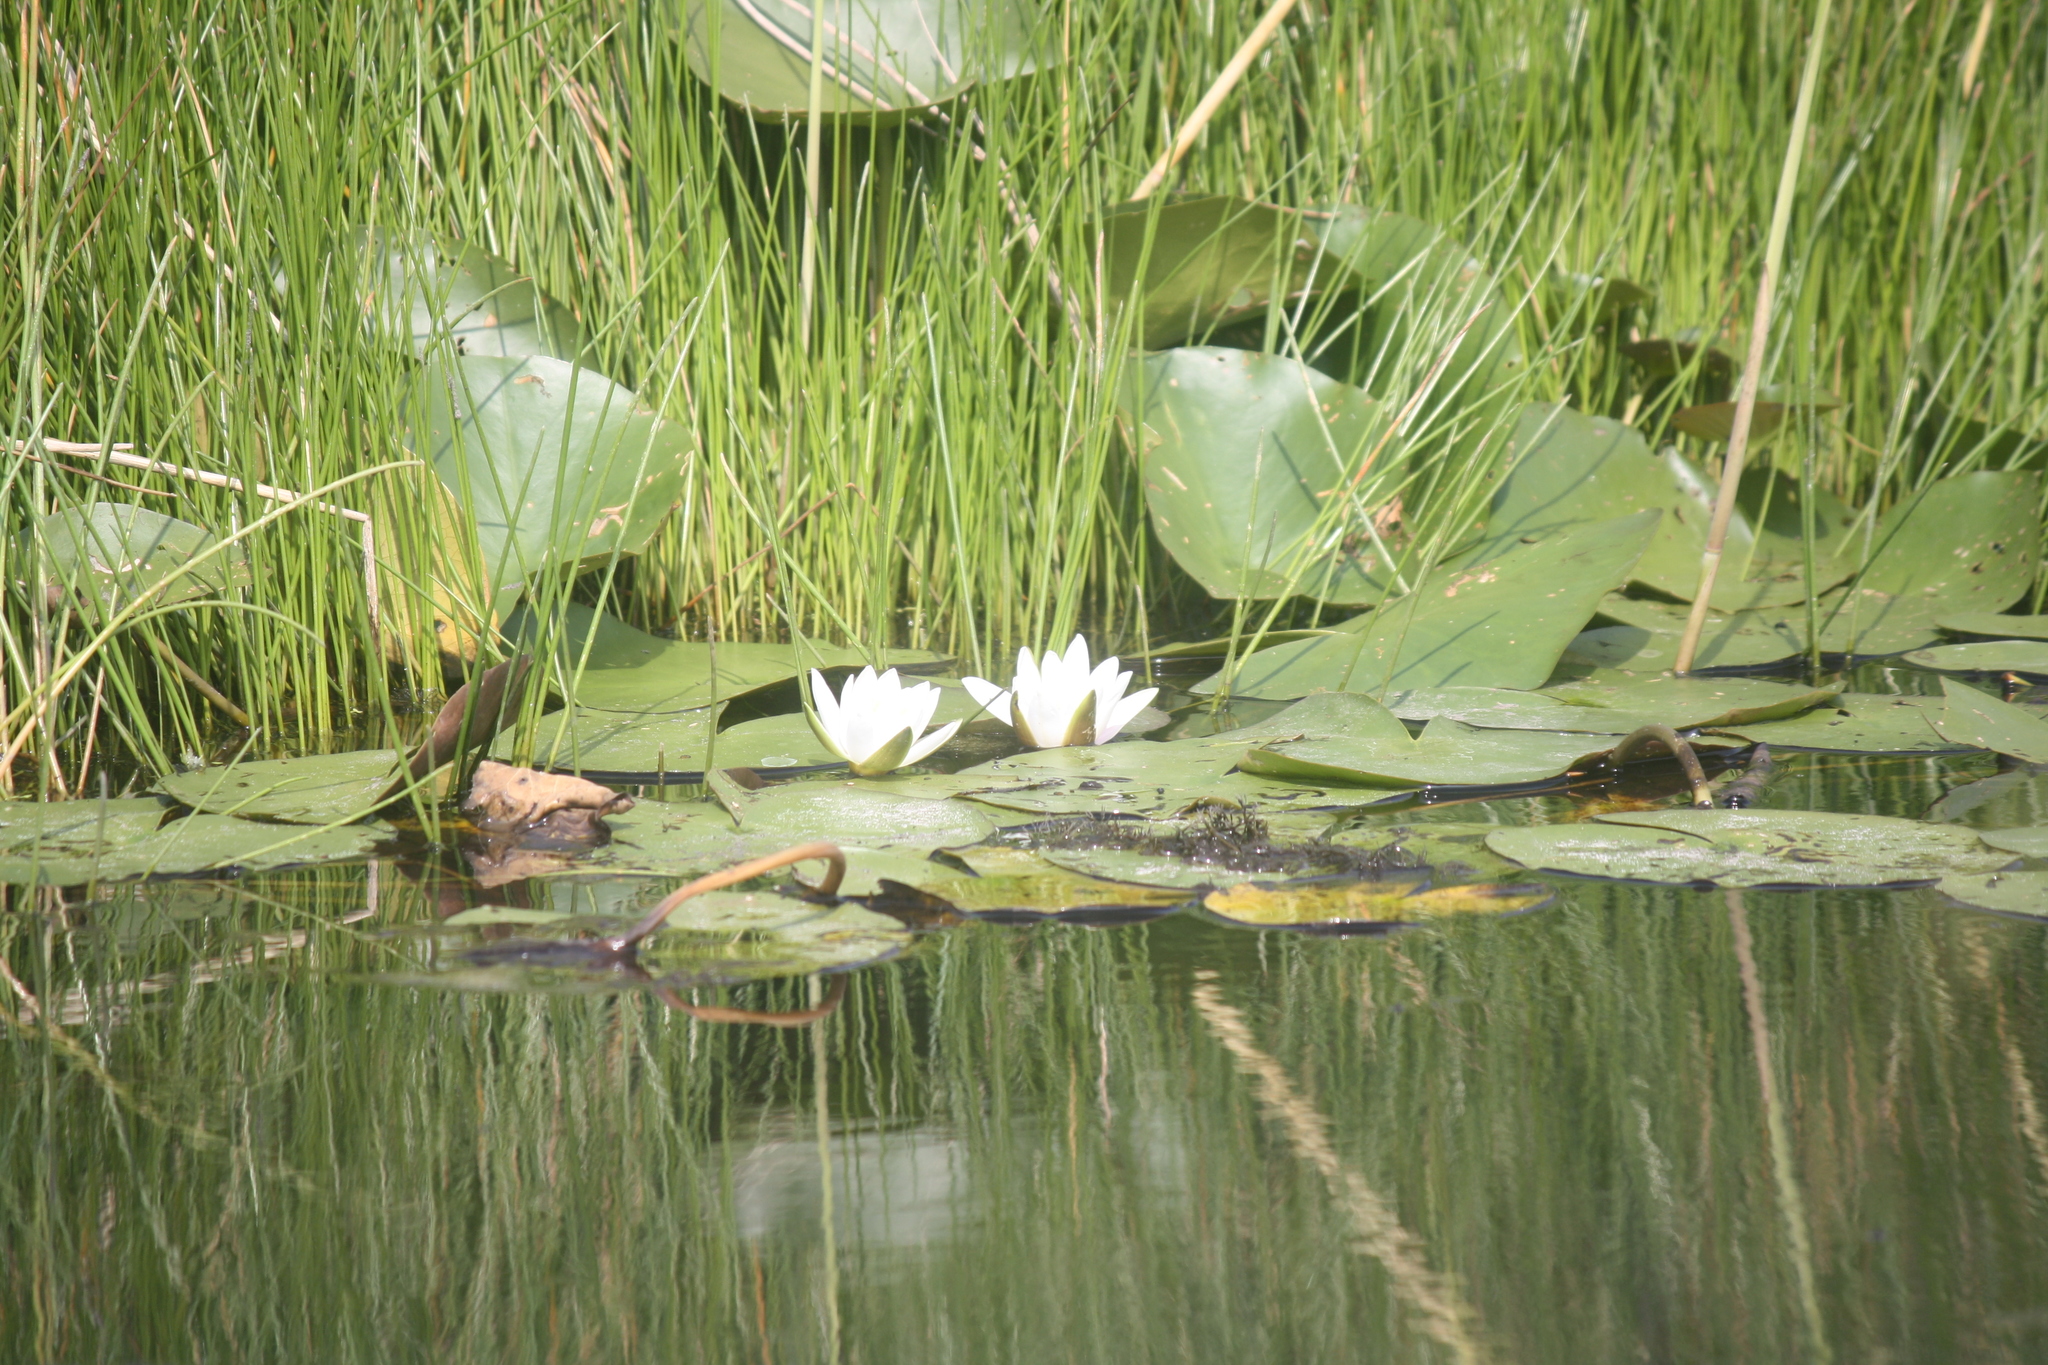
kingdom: Plantae
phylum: Tracheophyta
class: Magnoliopsida
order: Nymphaeales
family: Nymphaeaceae
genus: Nymphaea
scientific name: Nymphaea alba
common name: White water-lily
